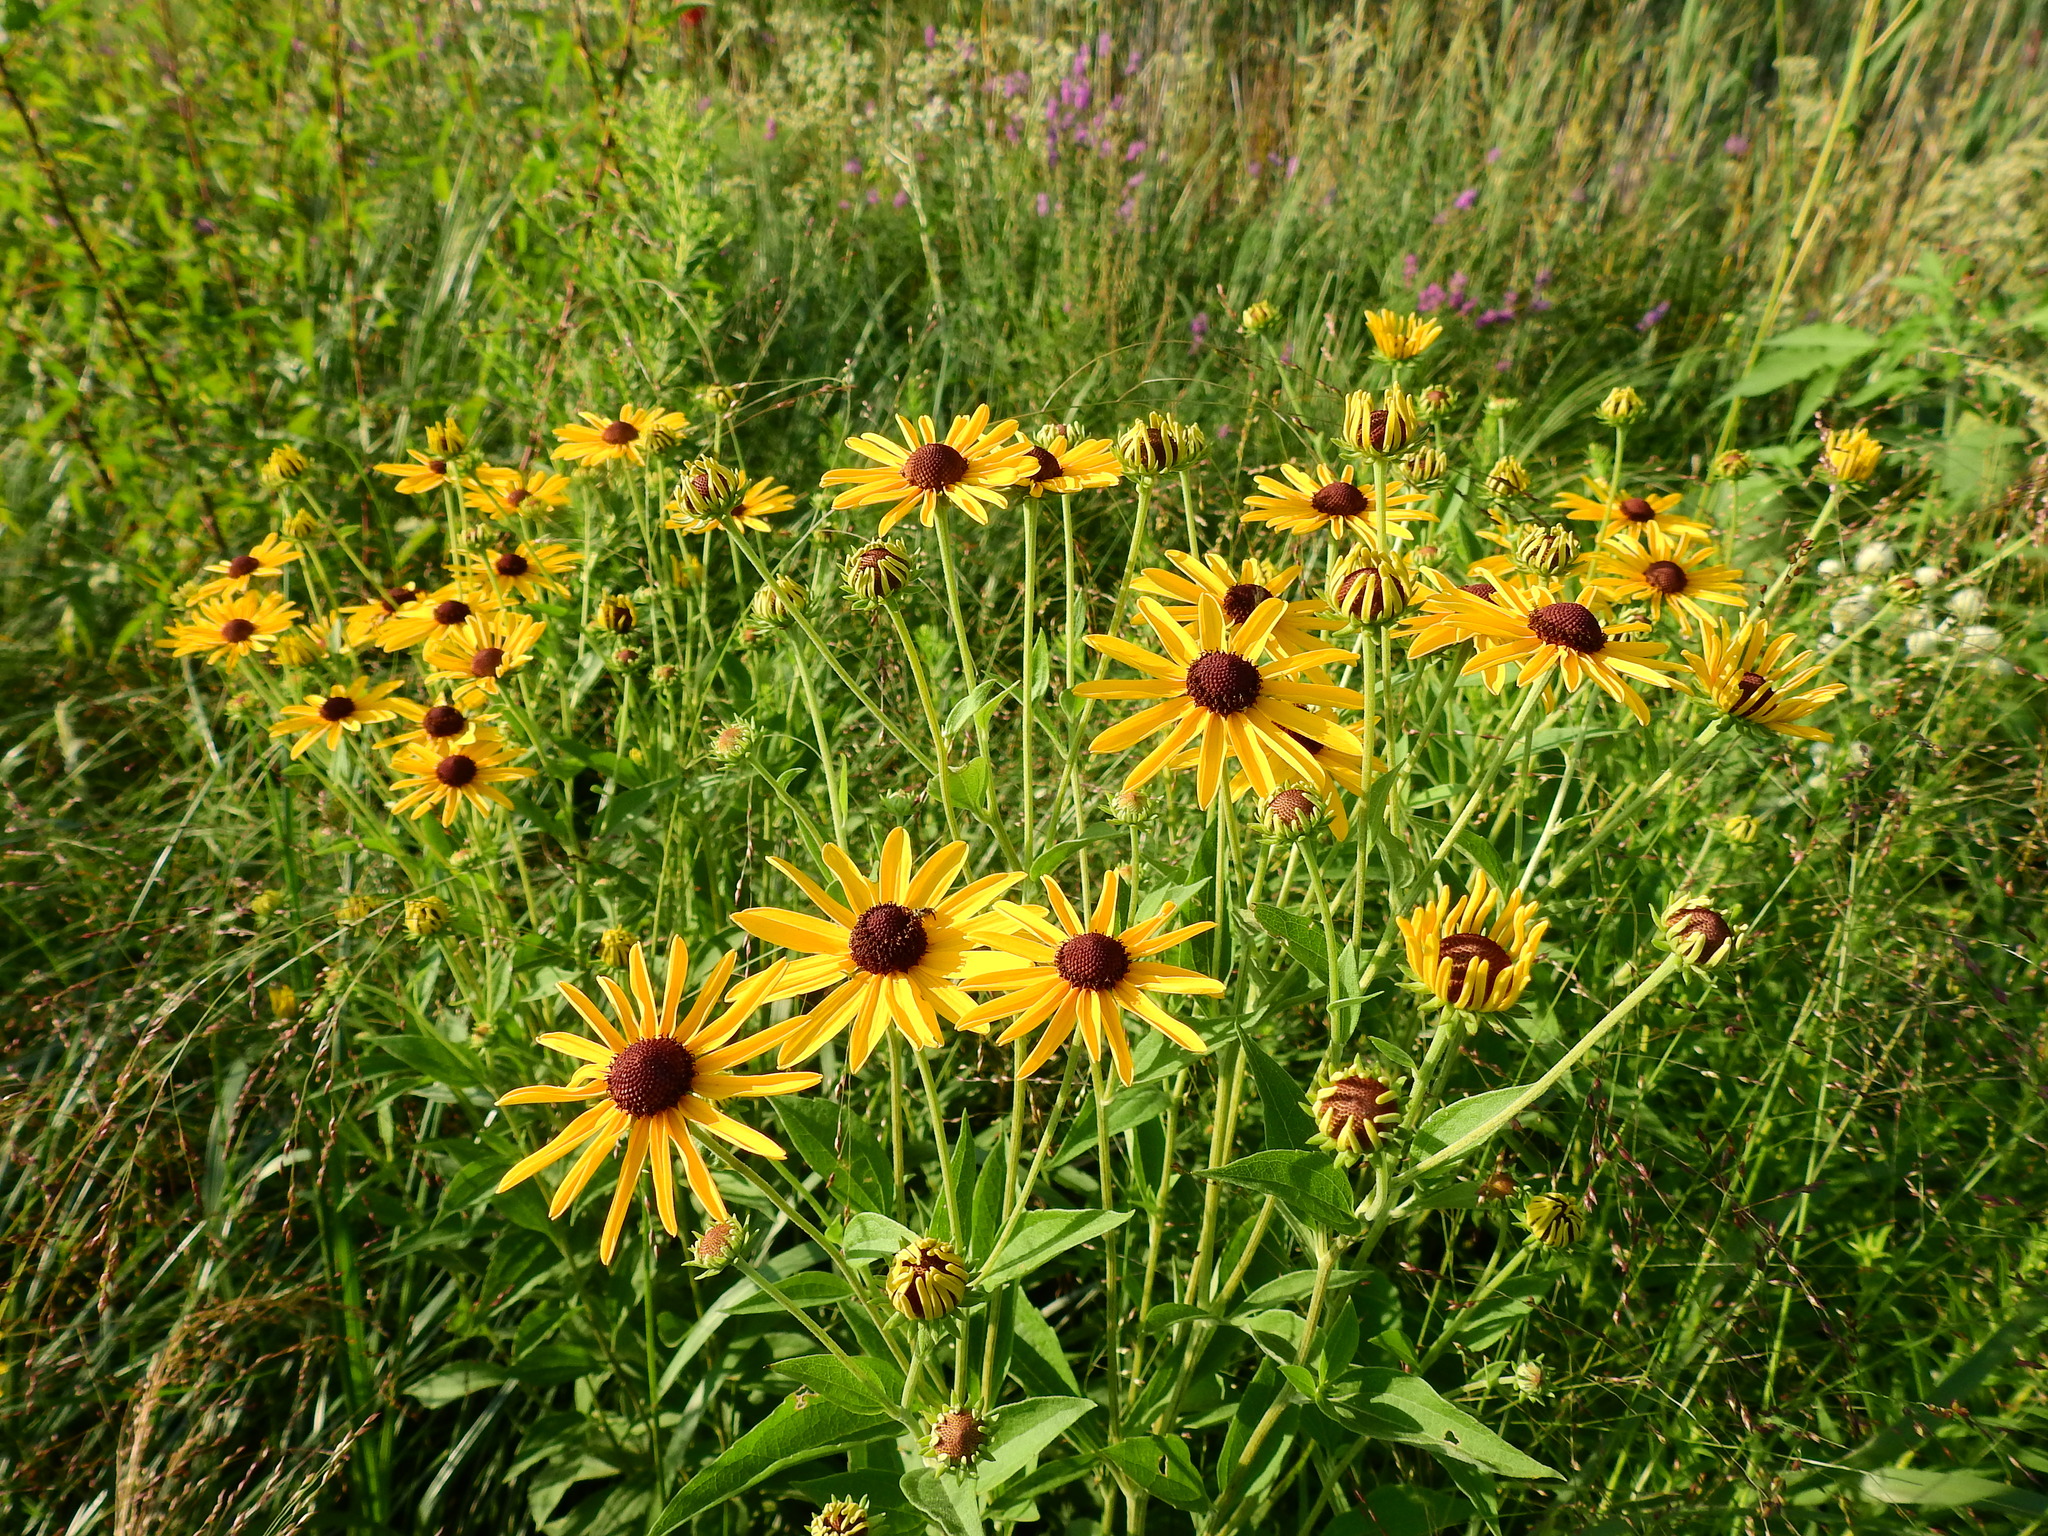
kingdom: Plantae
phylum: Tracheophyta
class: Magnoliopsida
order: Asterales
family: Asteraceae
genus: Rudbeckia
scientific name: Rudbeckia fulgida
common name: Perennial coneflower
